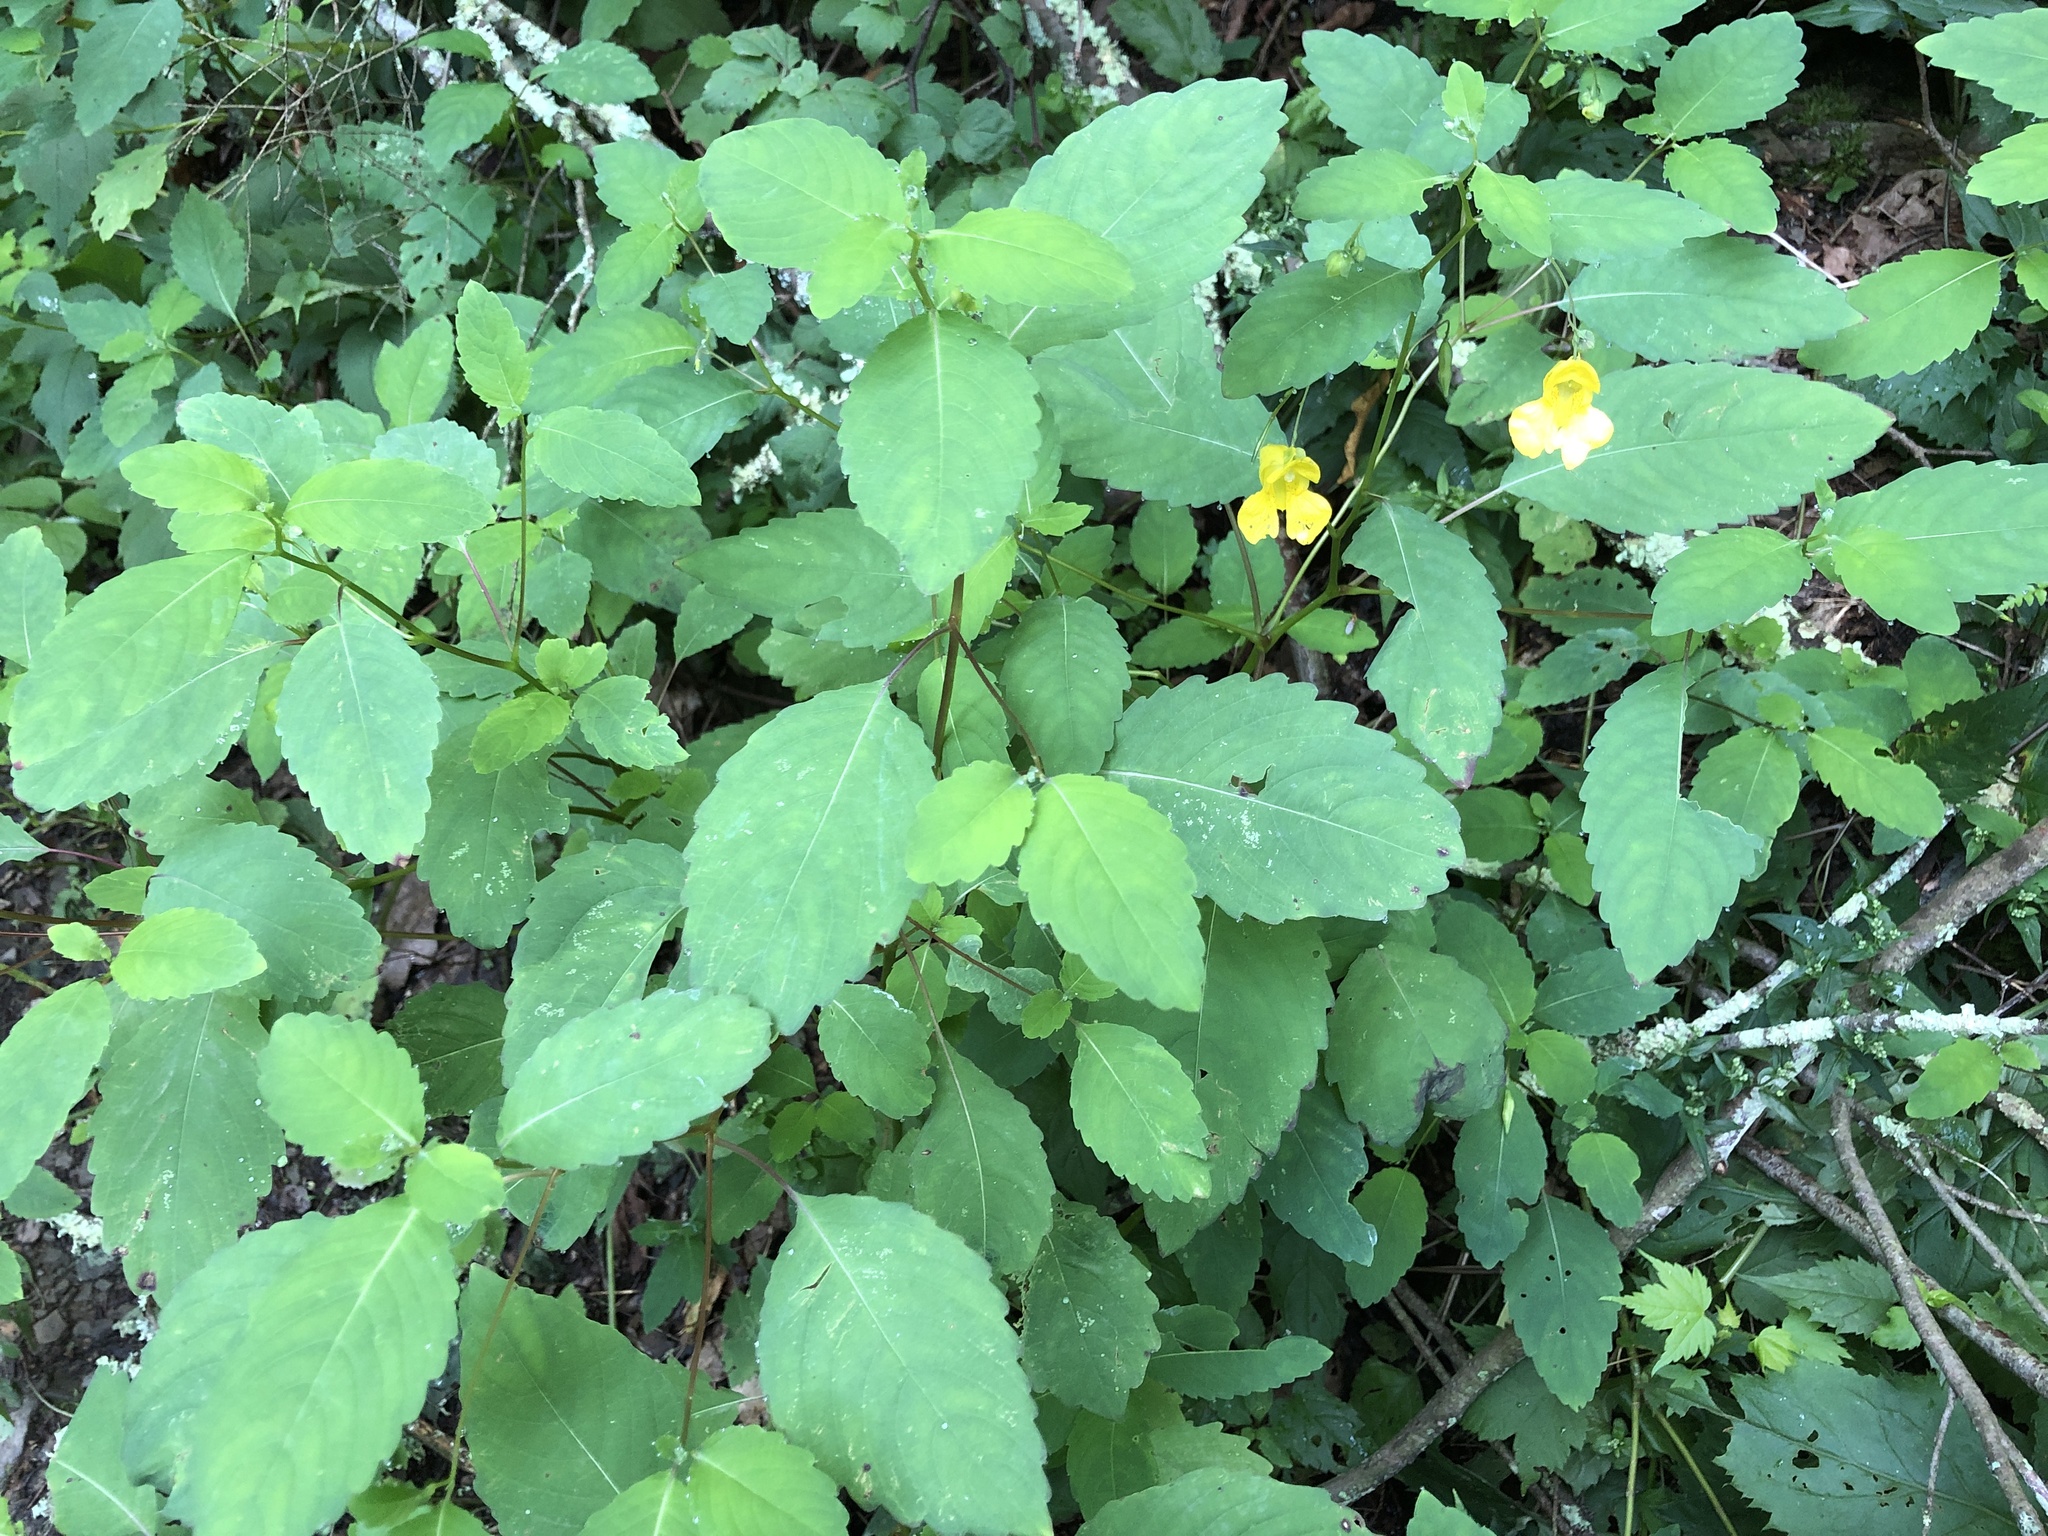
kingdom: Plantae
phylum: Tracheophyta
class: Magnoliopsida
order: Ericales
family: Balsaminaceae
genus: Impatiens
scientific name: Impatiens pallida
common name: Pale snapweed
